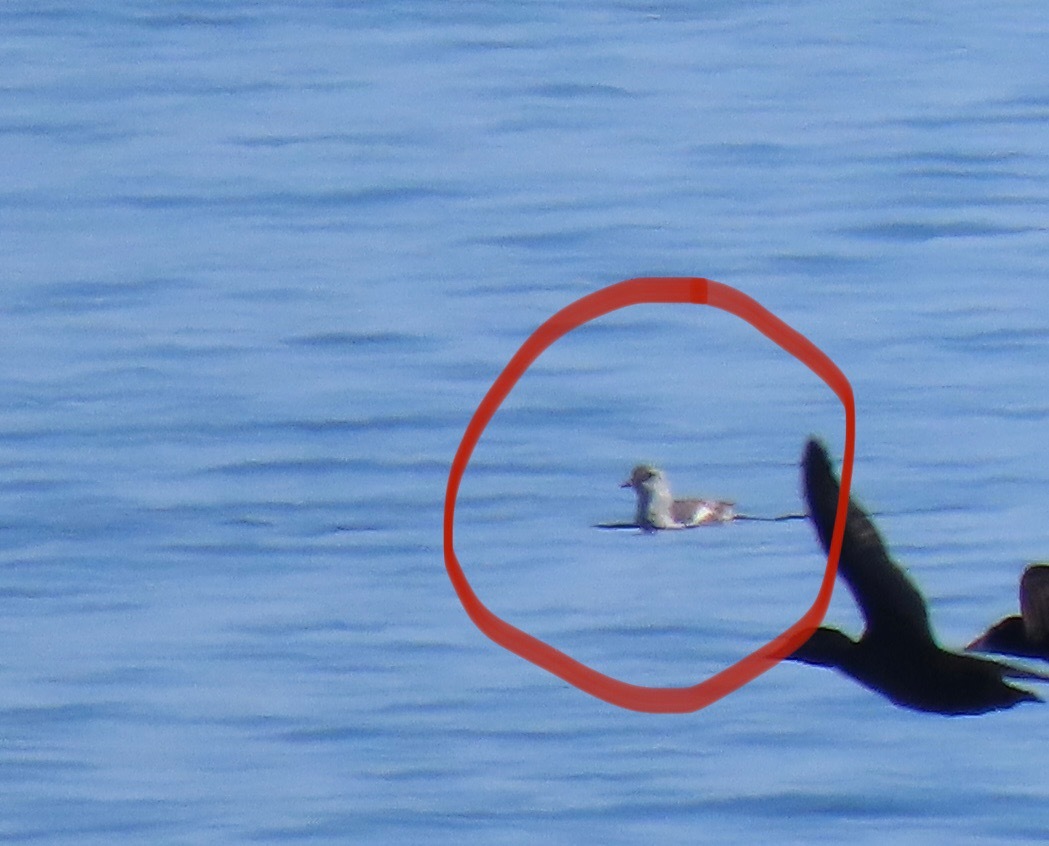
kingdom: Animalia
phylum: Chordata
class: Aves
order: Charadriiformes
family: Alcidae
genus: Cepphus
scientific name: Cepphus columba
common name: Pigeon guillemot
